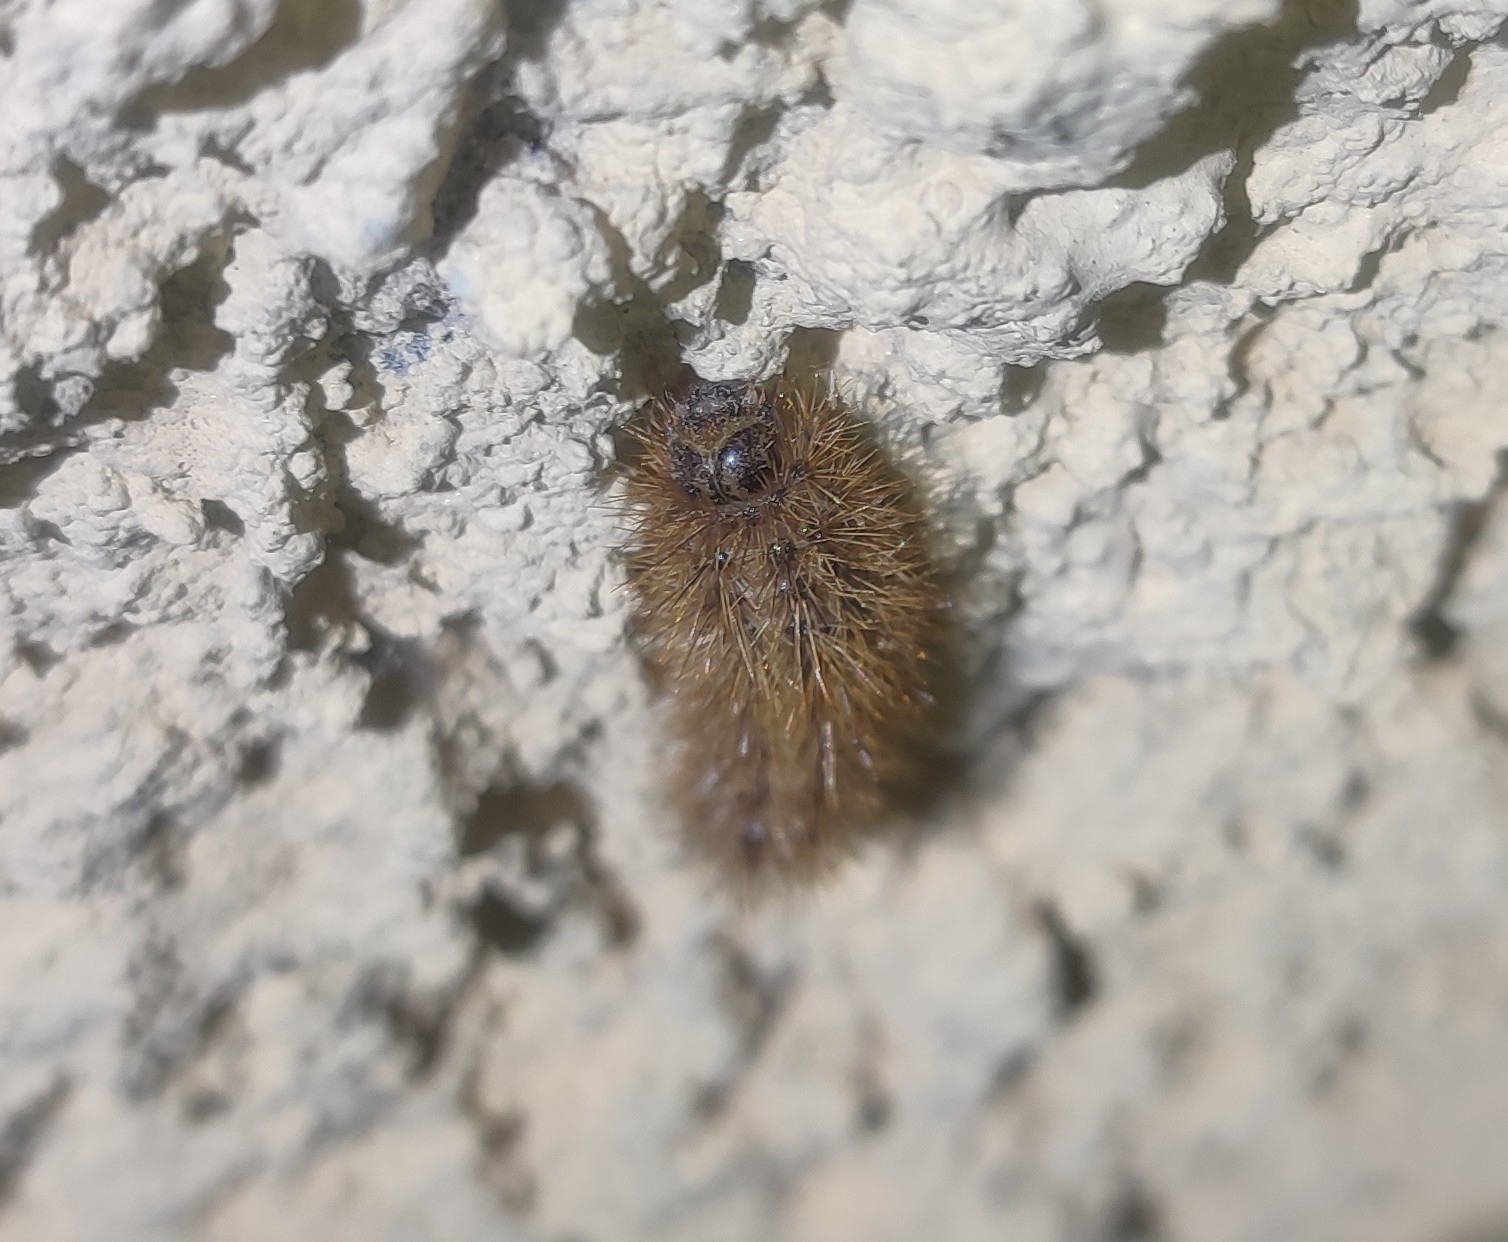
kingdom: Animalia
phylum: Arthropoda
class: Insecta
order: Lepidoptera
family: Erebidae
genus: Cymbalophora
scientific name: Cymbalophora pudica
